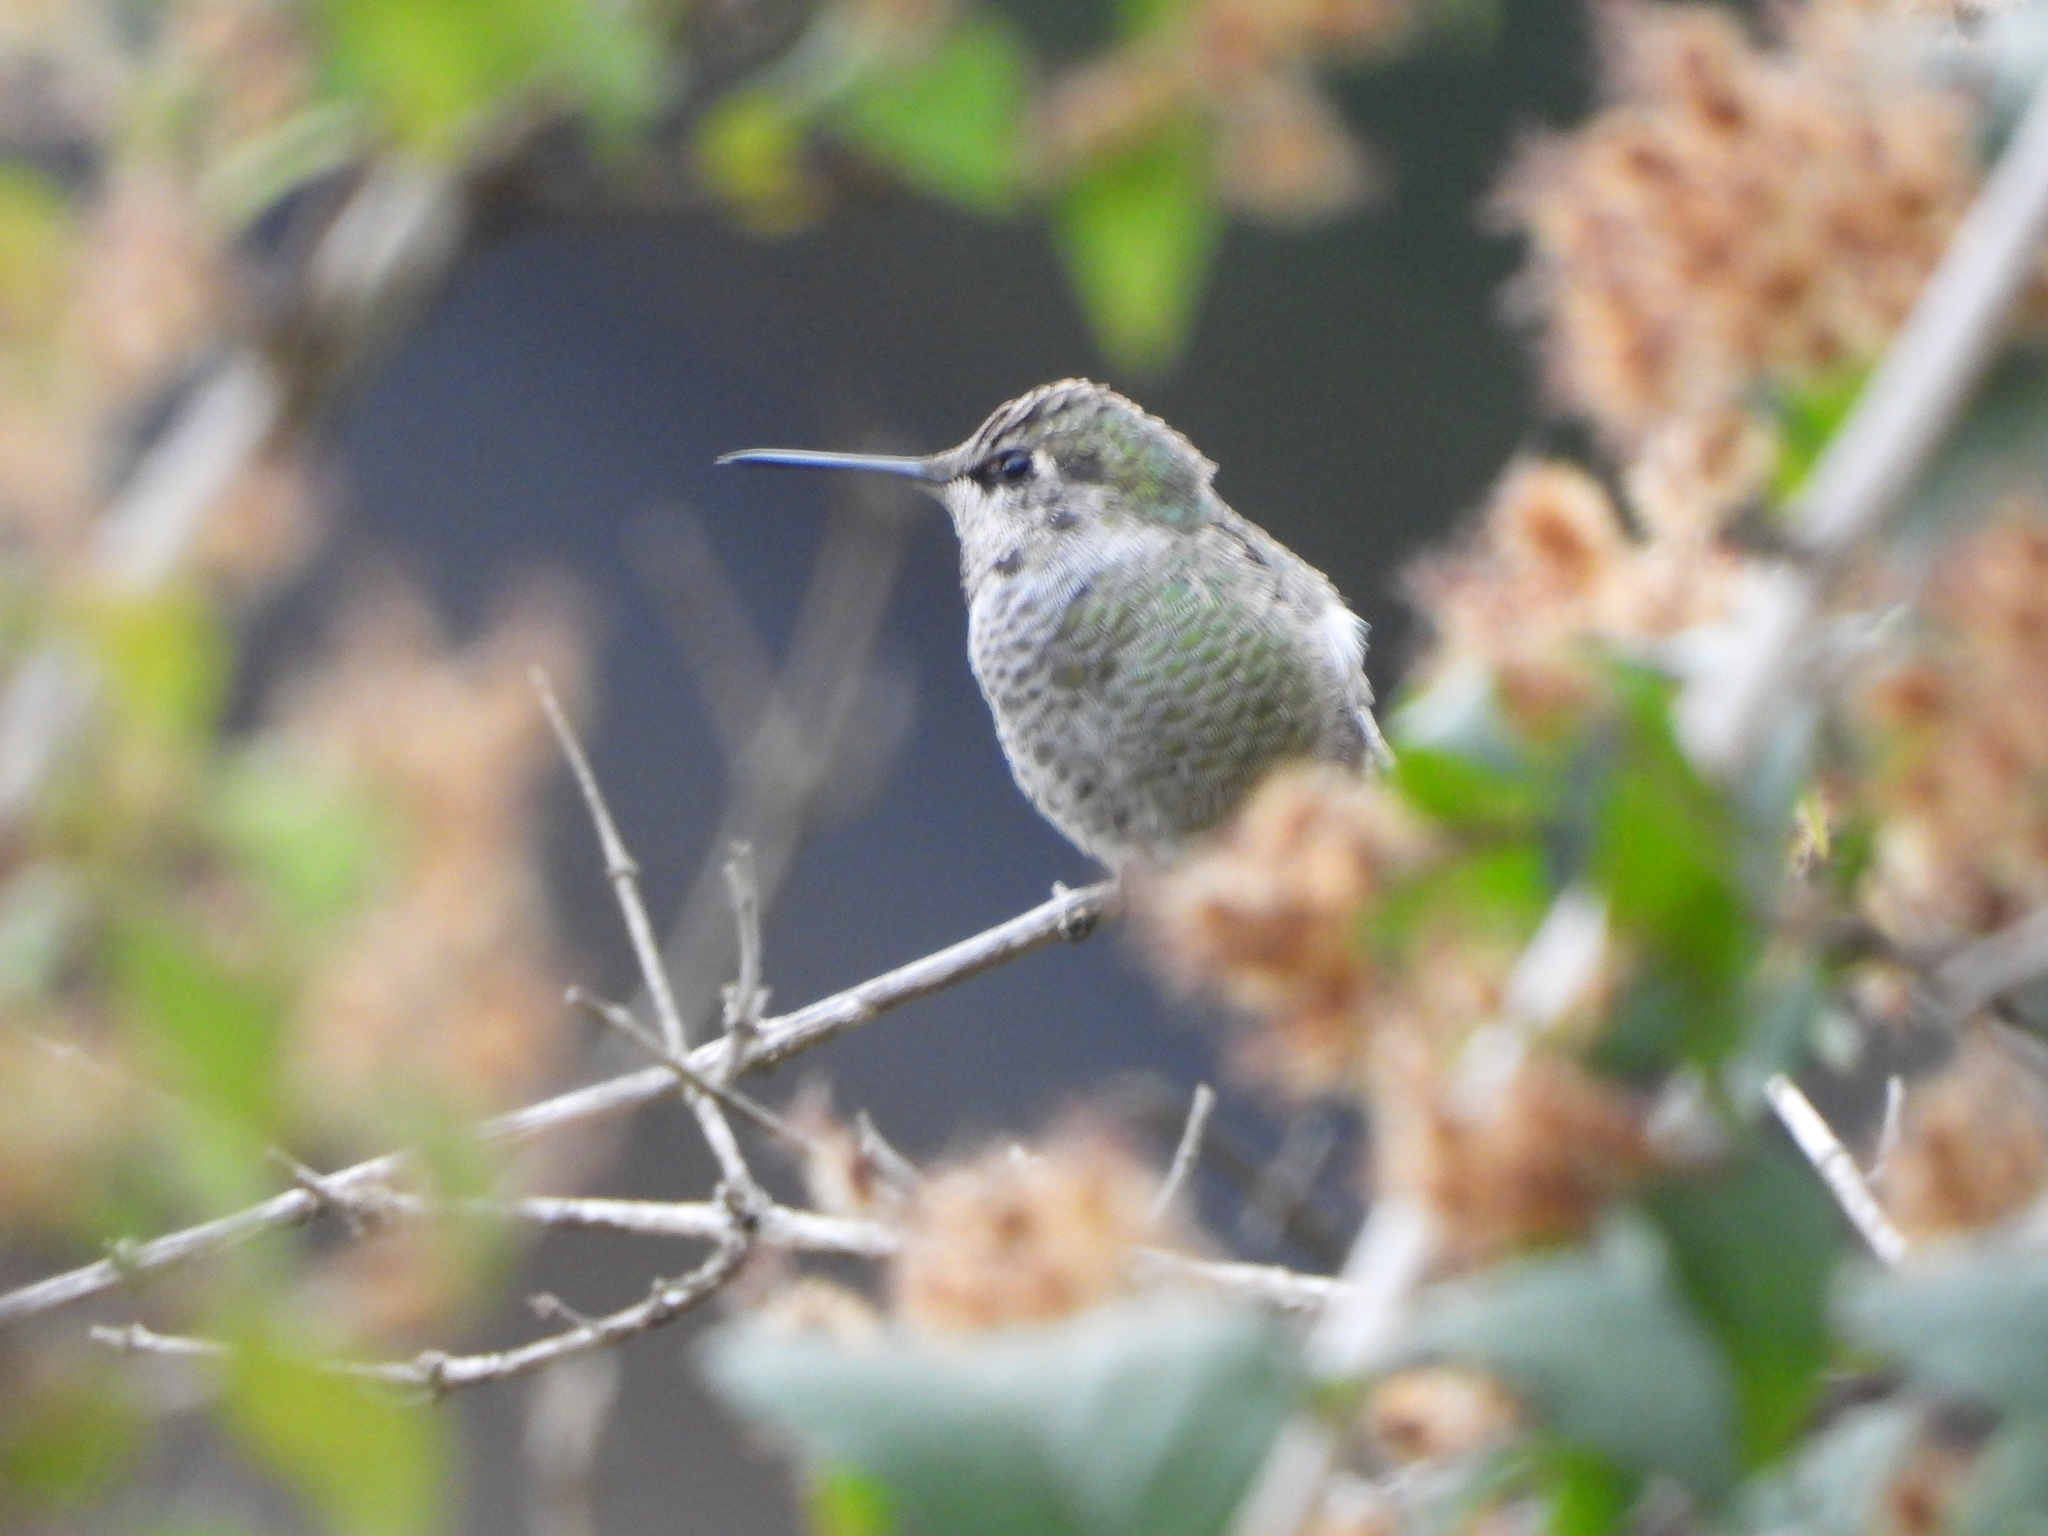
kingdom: Animalia
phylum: Chordata
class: Aves
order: Apodiformes
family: Trochilidae
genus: Calypte
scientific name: Calypte anna
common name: Anna's hummingbird
